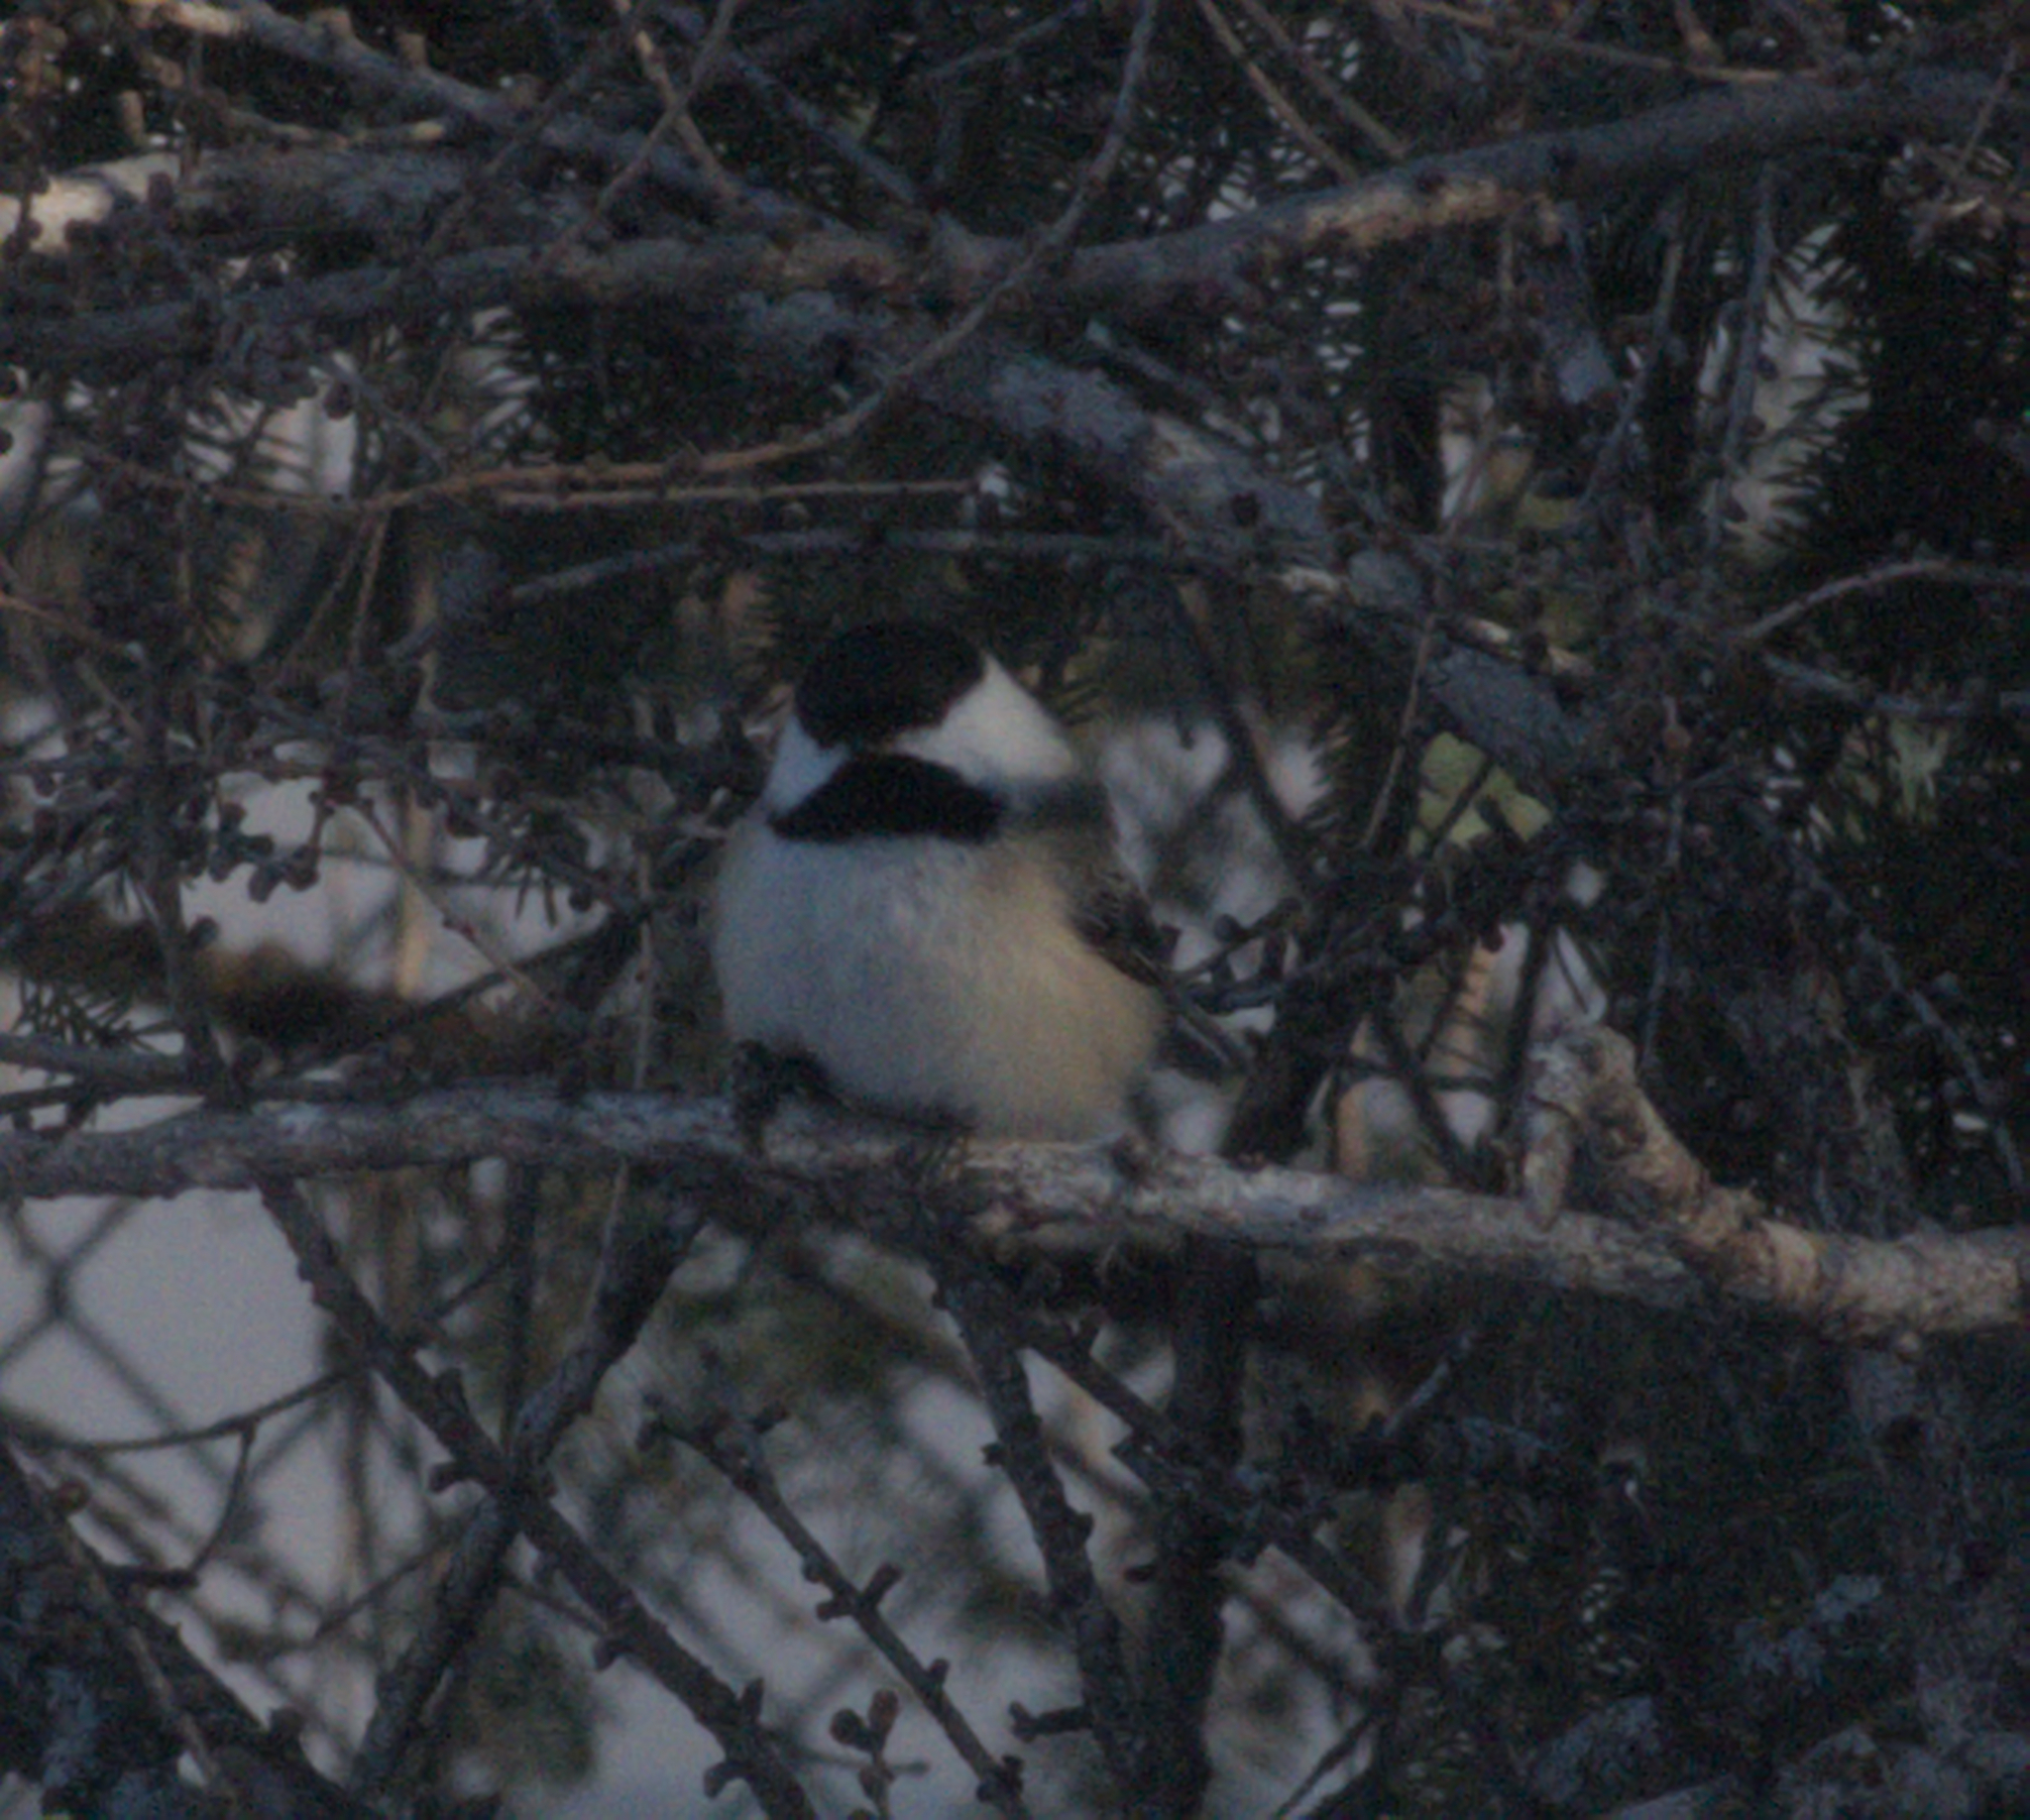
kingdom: Animalia
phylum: Chordata
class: Aves
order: Passeriformes
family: Paridae
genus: Poecile
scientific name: Poecile atricapillus
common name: Black-capped chickadee
